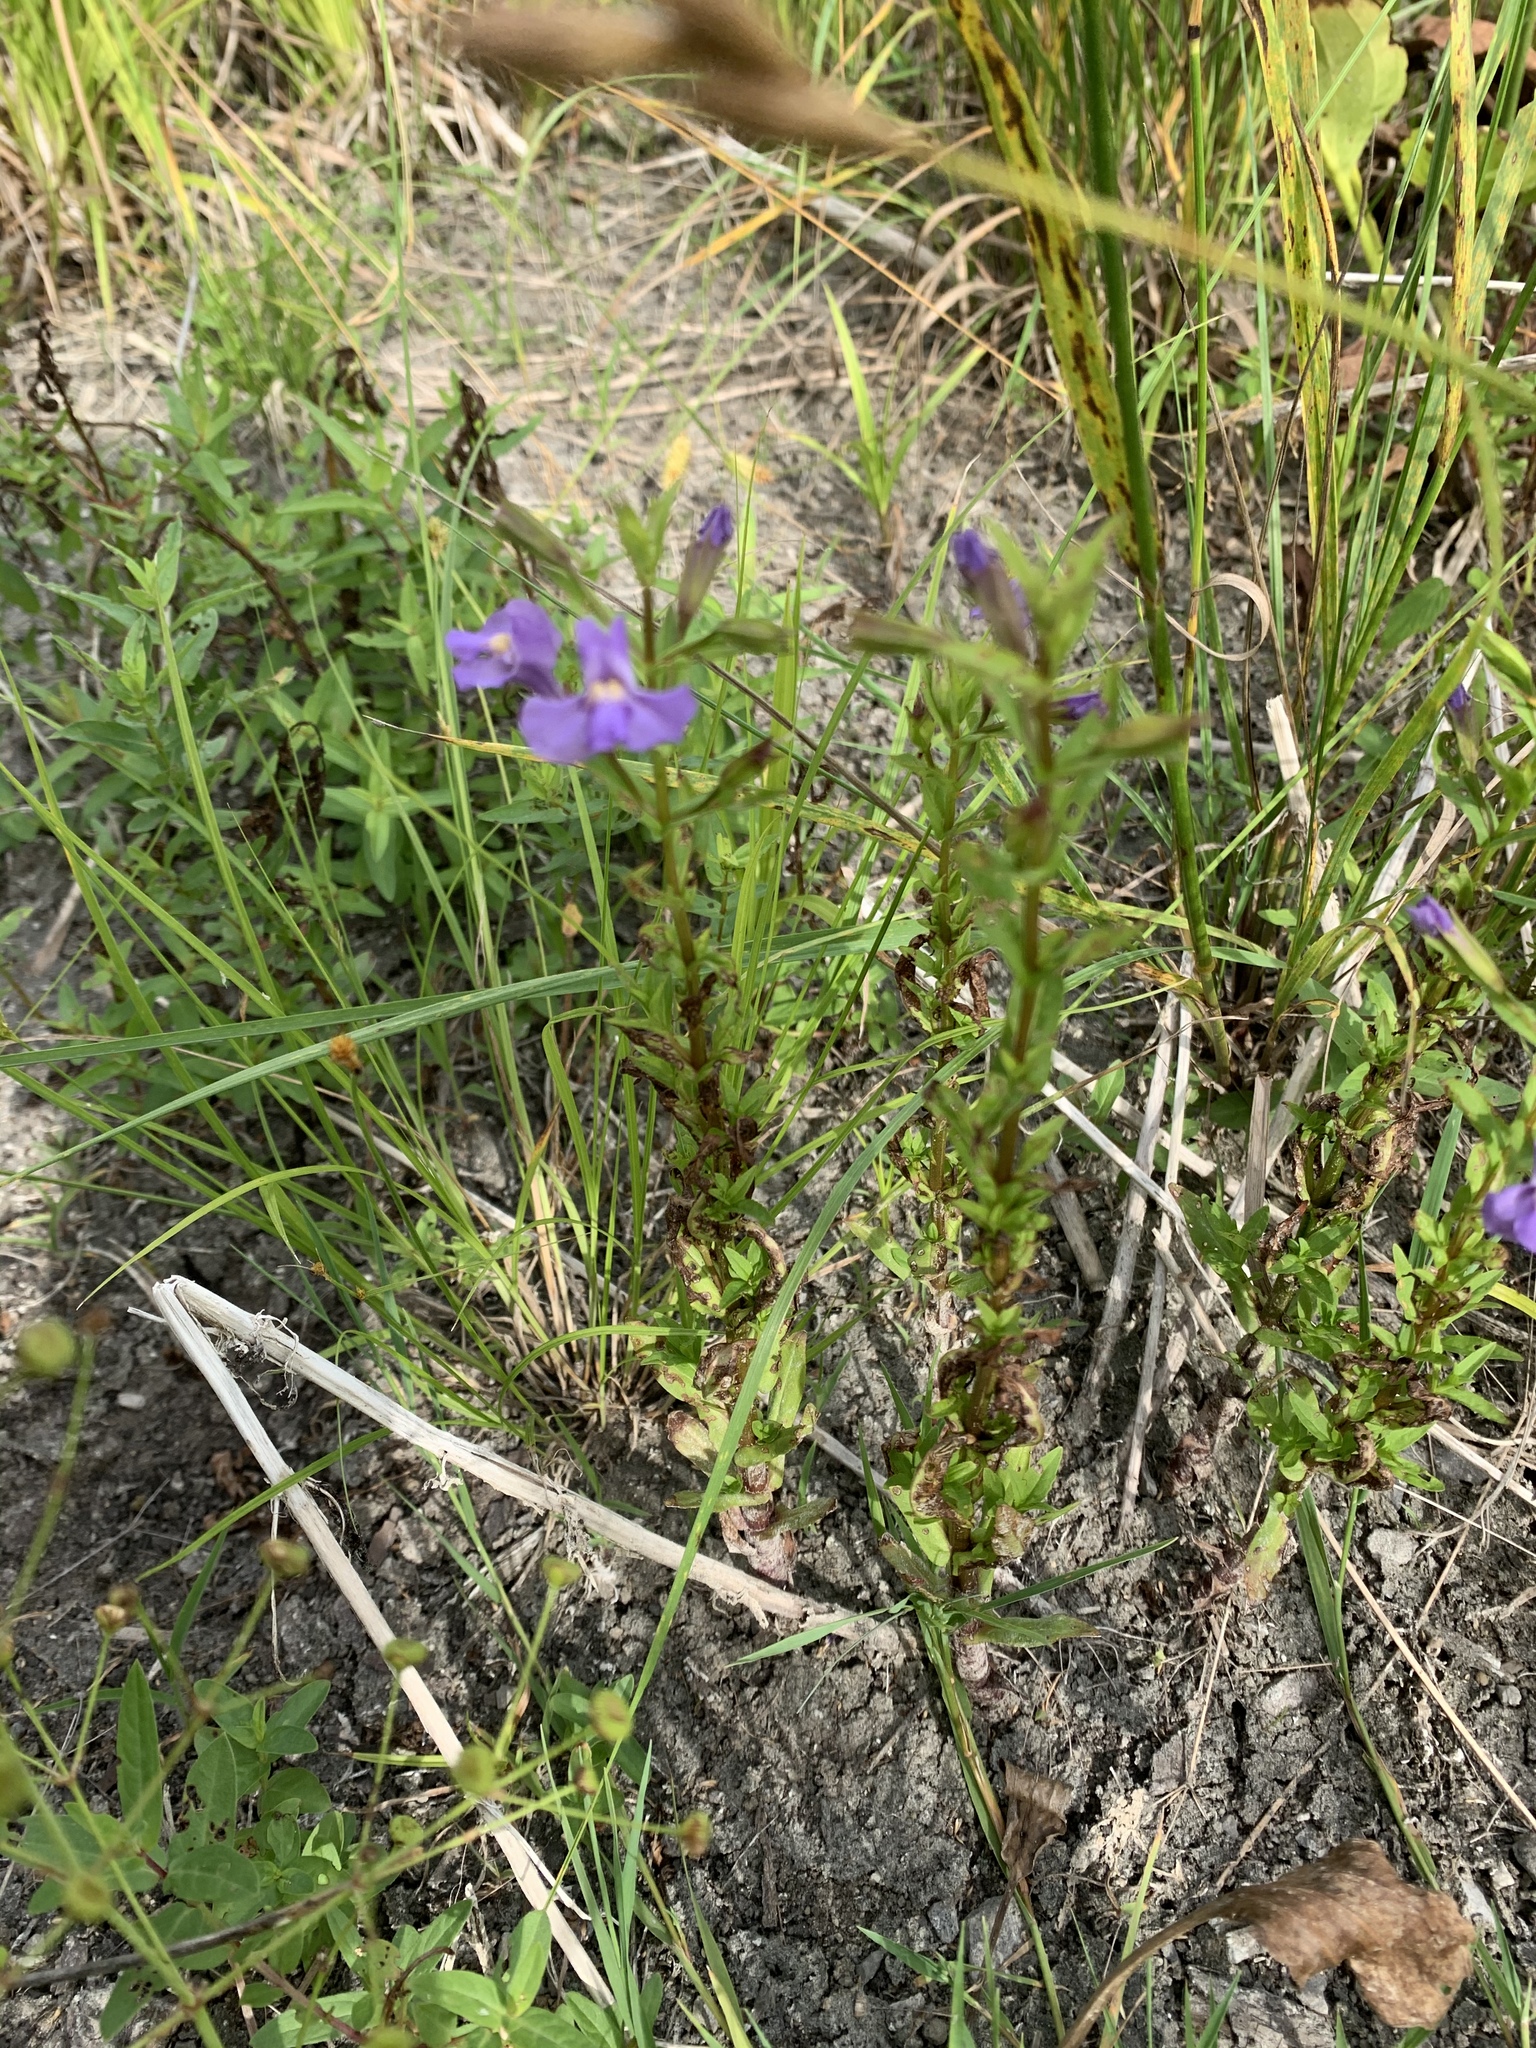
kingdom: Plantae
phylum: Tracheophyta
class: Magnoliopsida
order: Lamiales
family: Phrymaceae
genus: Mimulus
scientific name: Mimulus ringens
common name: Allegheny monkeyflower
